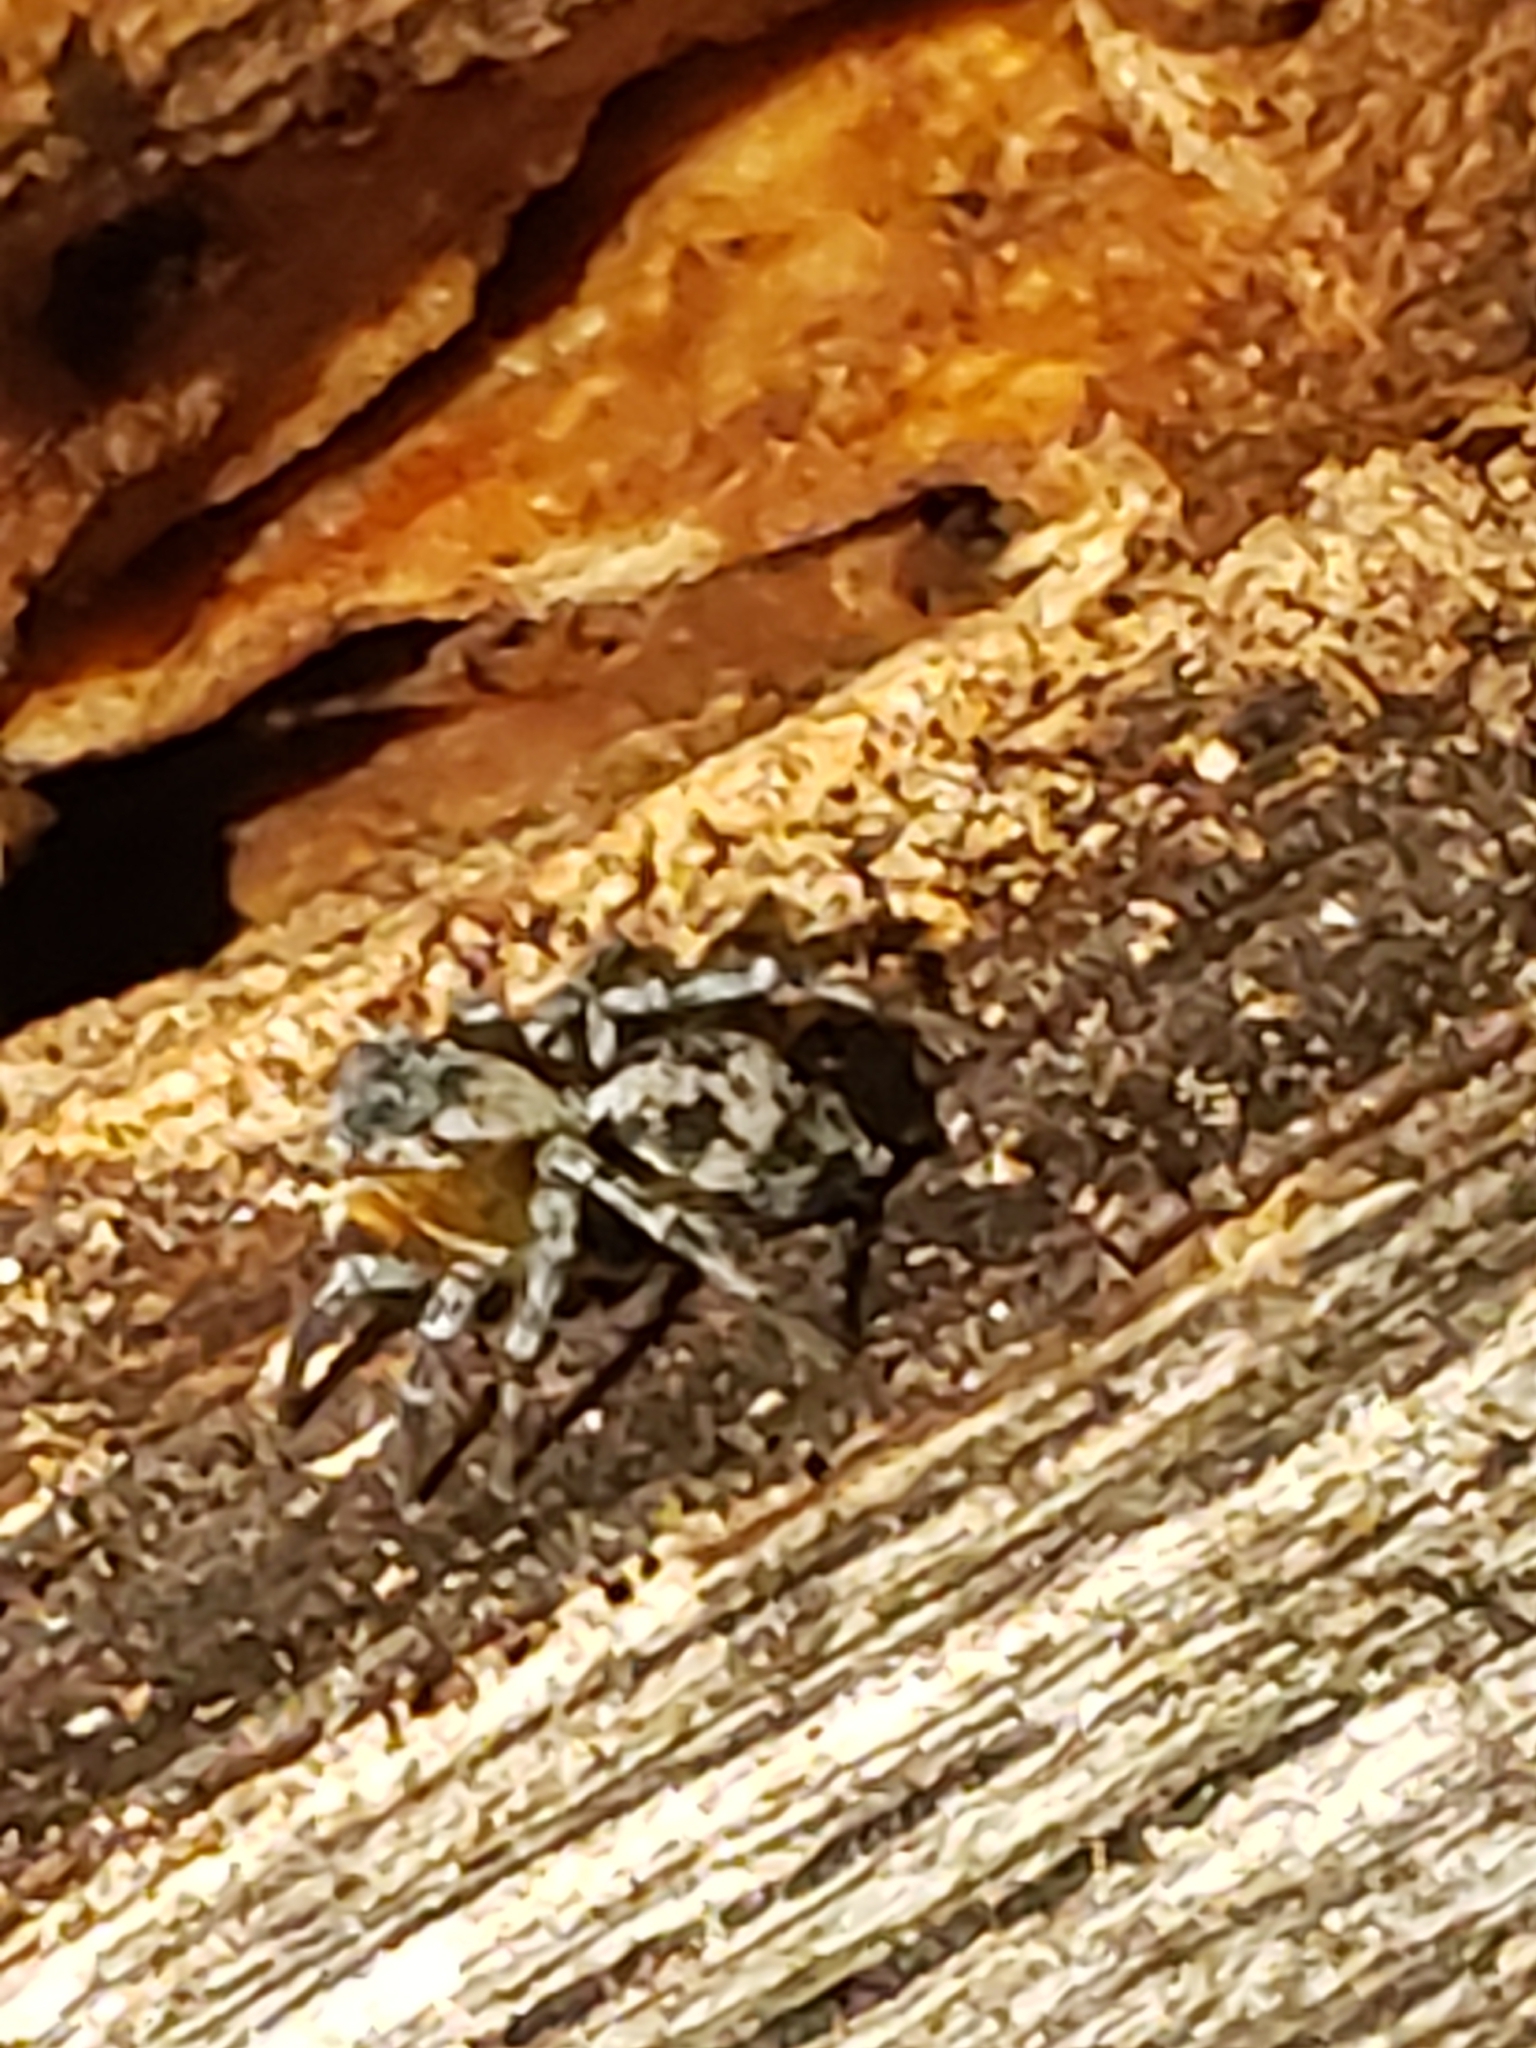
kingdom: Animalia
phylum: Arthropoda
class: Arachnida
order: Araneae
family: Salticidae
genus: Naphrys
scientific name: Naphrys pulex
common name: Flea jumping spider
